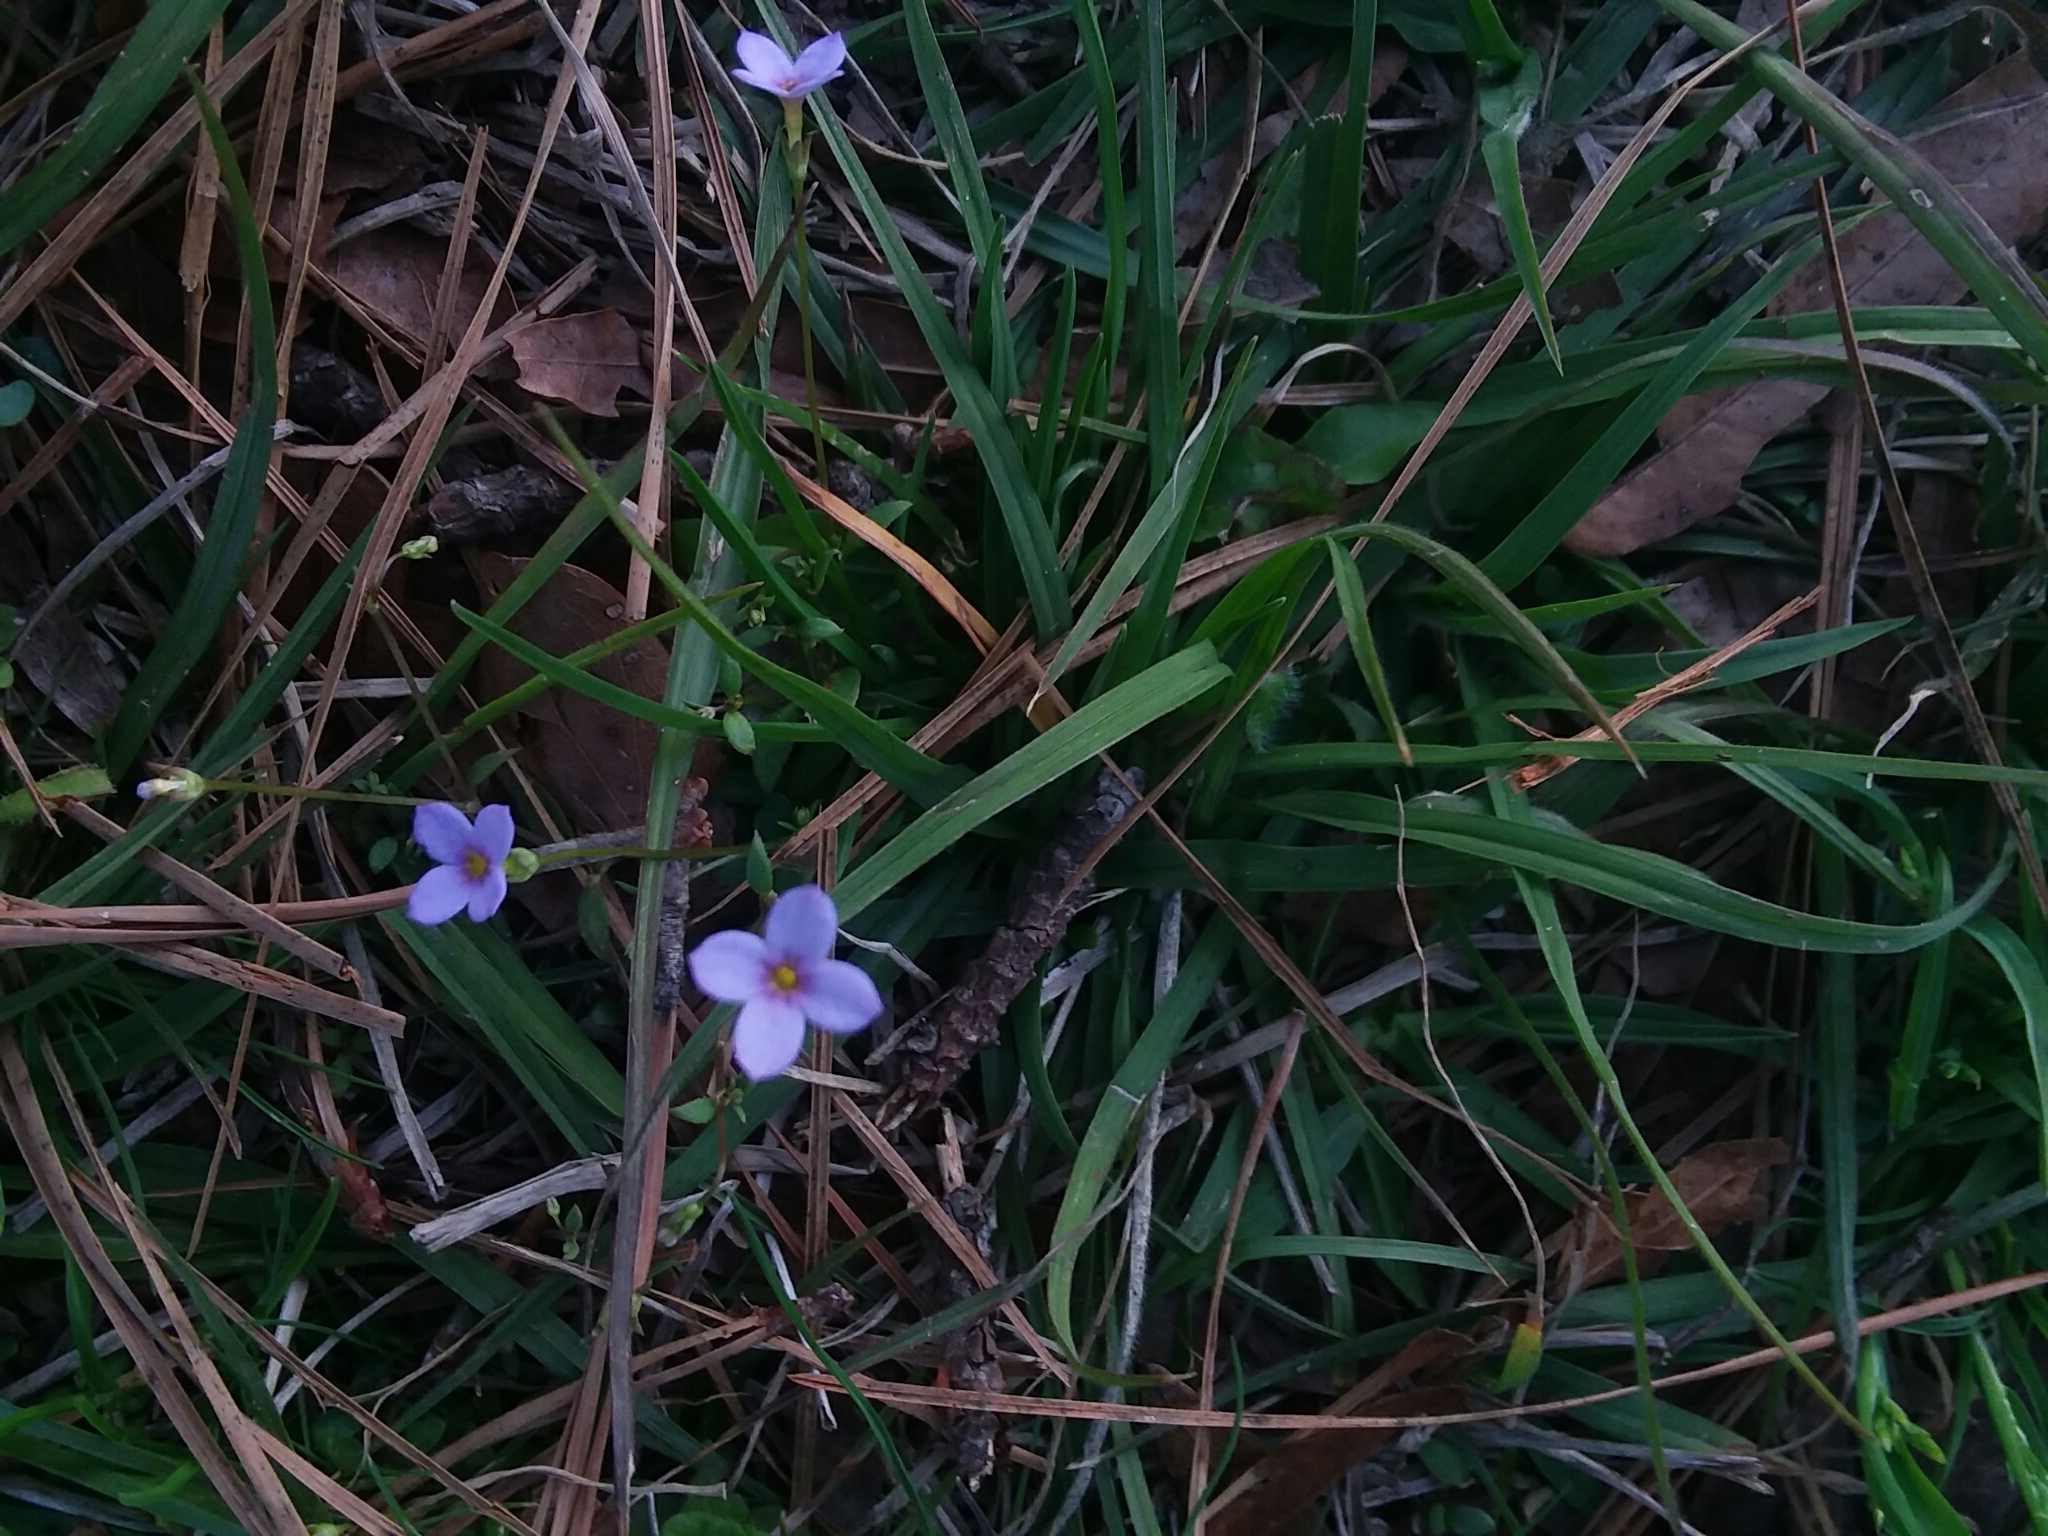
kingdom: Plantae
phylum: Tracheophyta
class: Magnoliopsida
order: Gentianales
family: Rubiaceae
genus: Houstonia
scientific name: Houstonia pusilla
